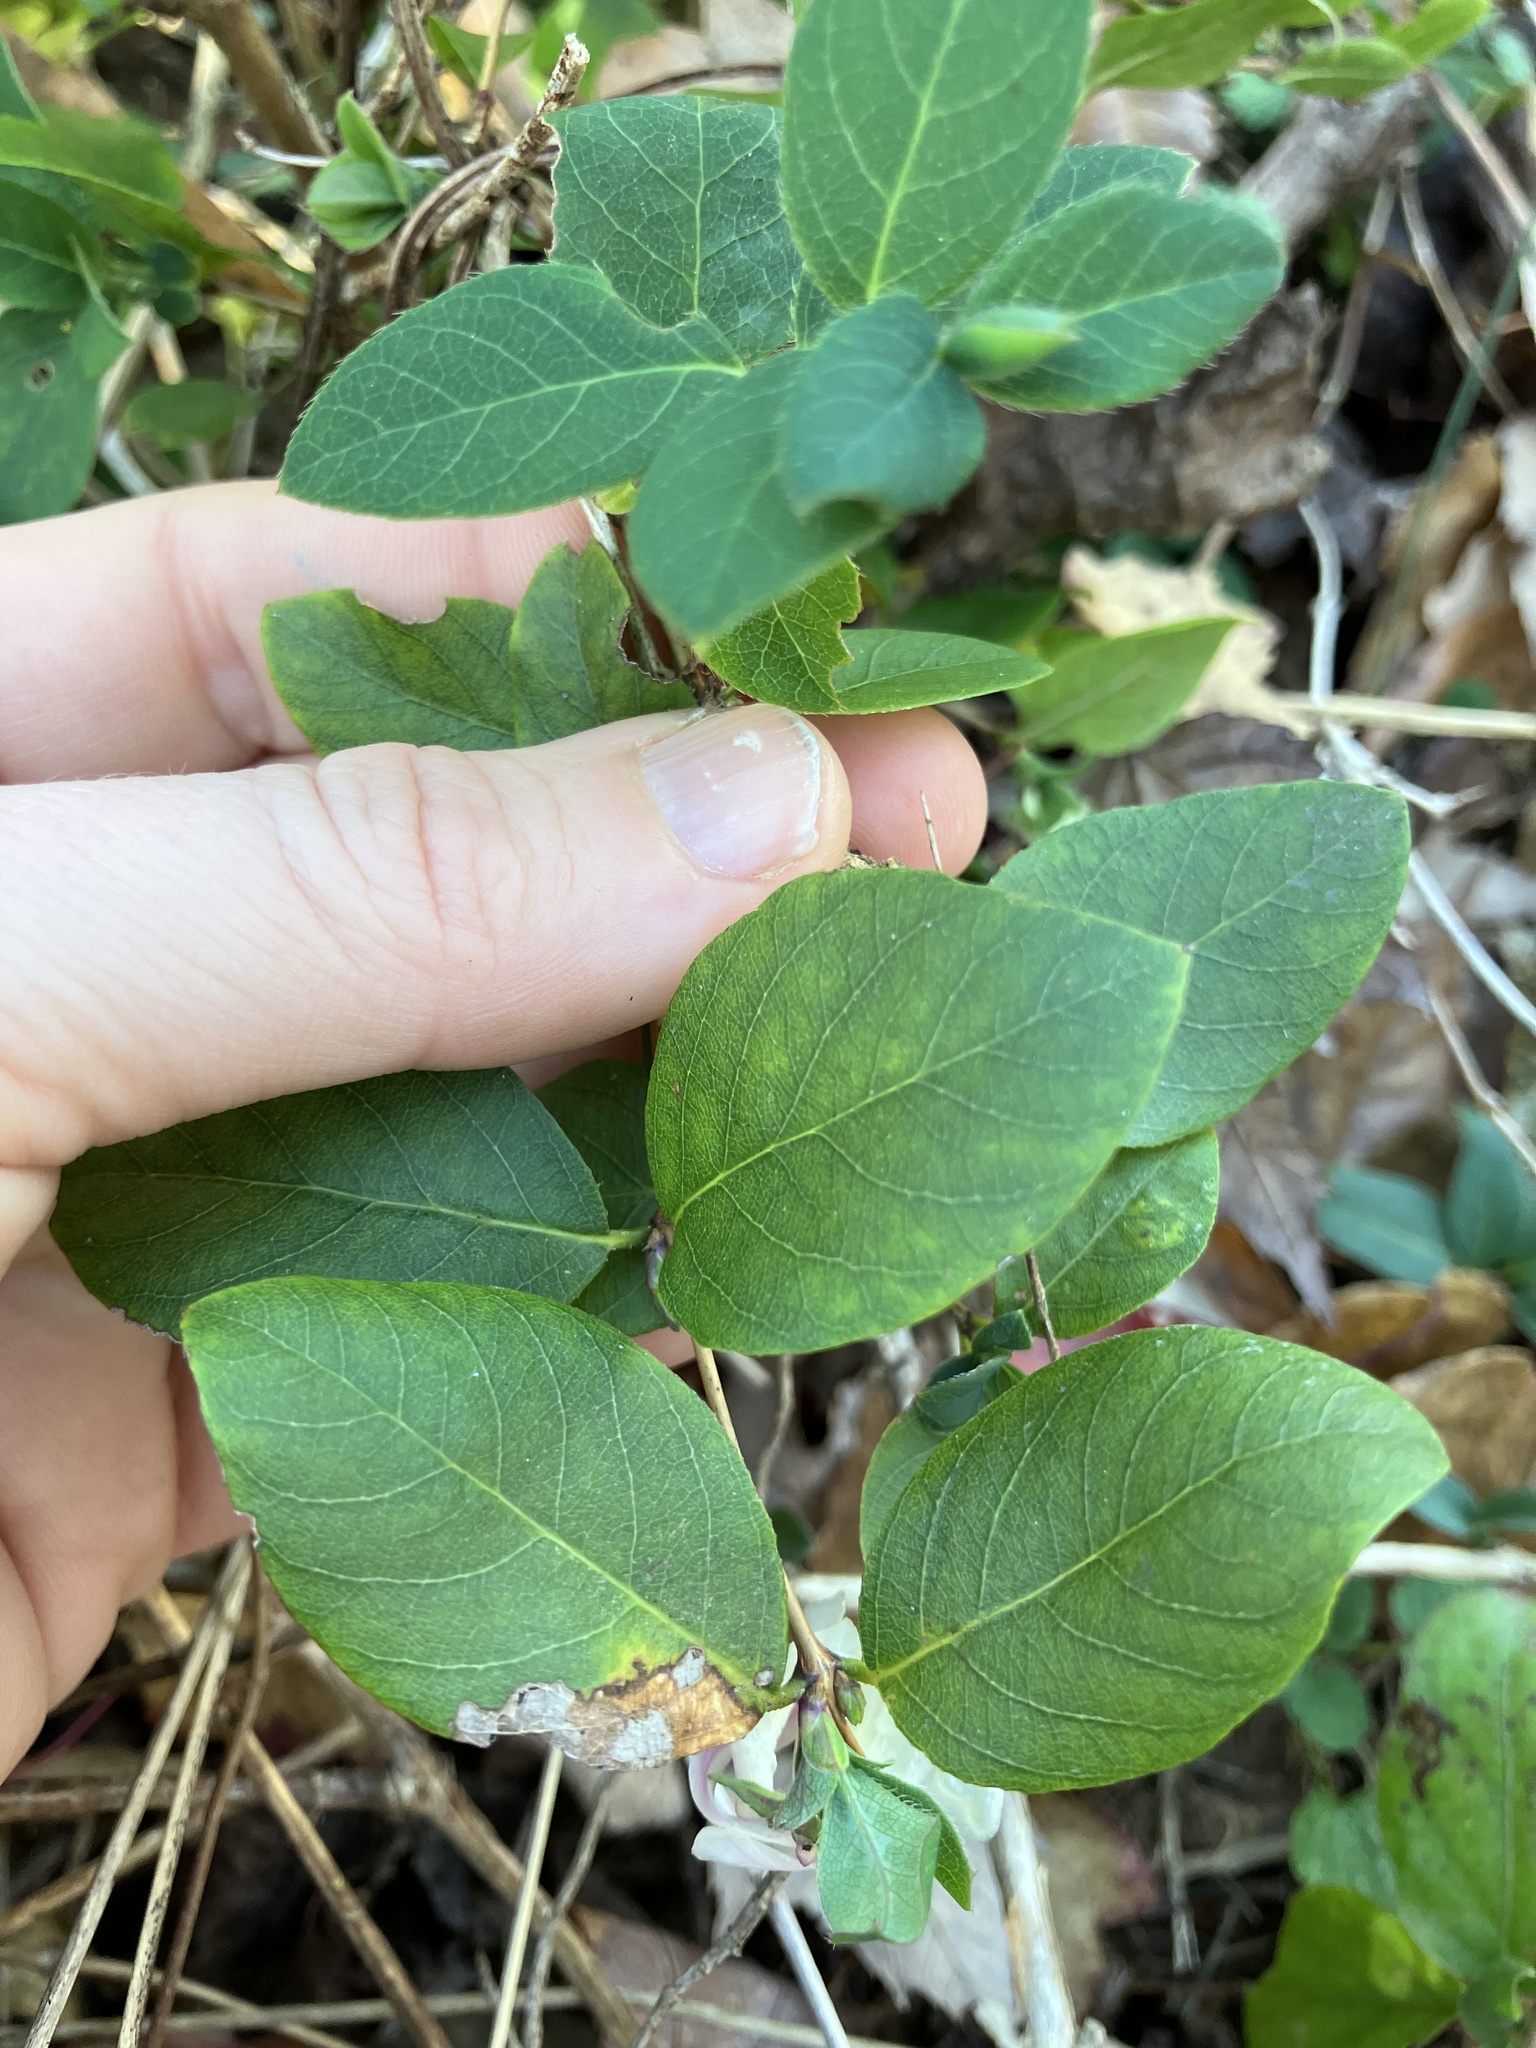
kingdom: Plantae
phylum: Tracheophyta
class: Magnoliopsida
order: Dipsacales
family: Caprifoliaceae
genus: Lonicera
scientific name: Lonicera fragrantissima
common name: Fragrant honeysuckle
